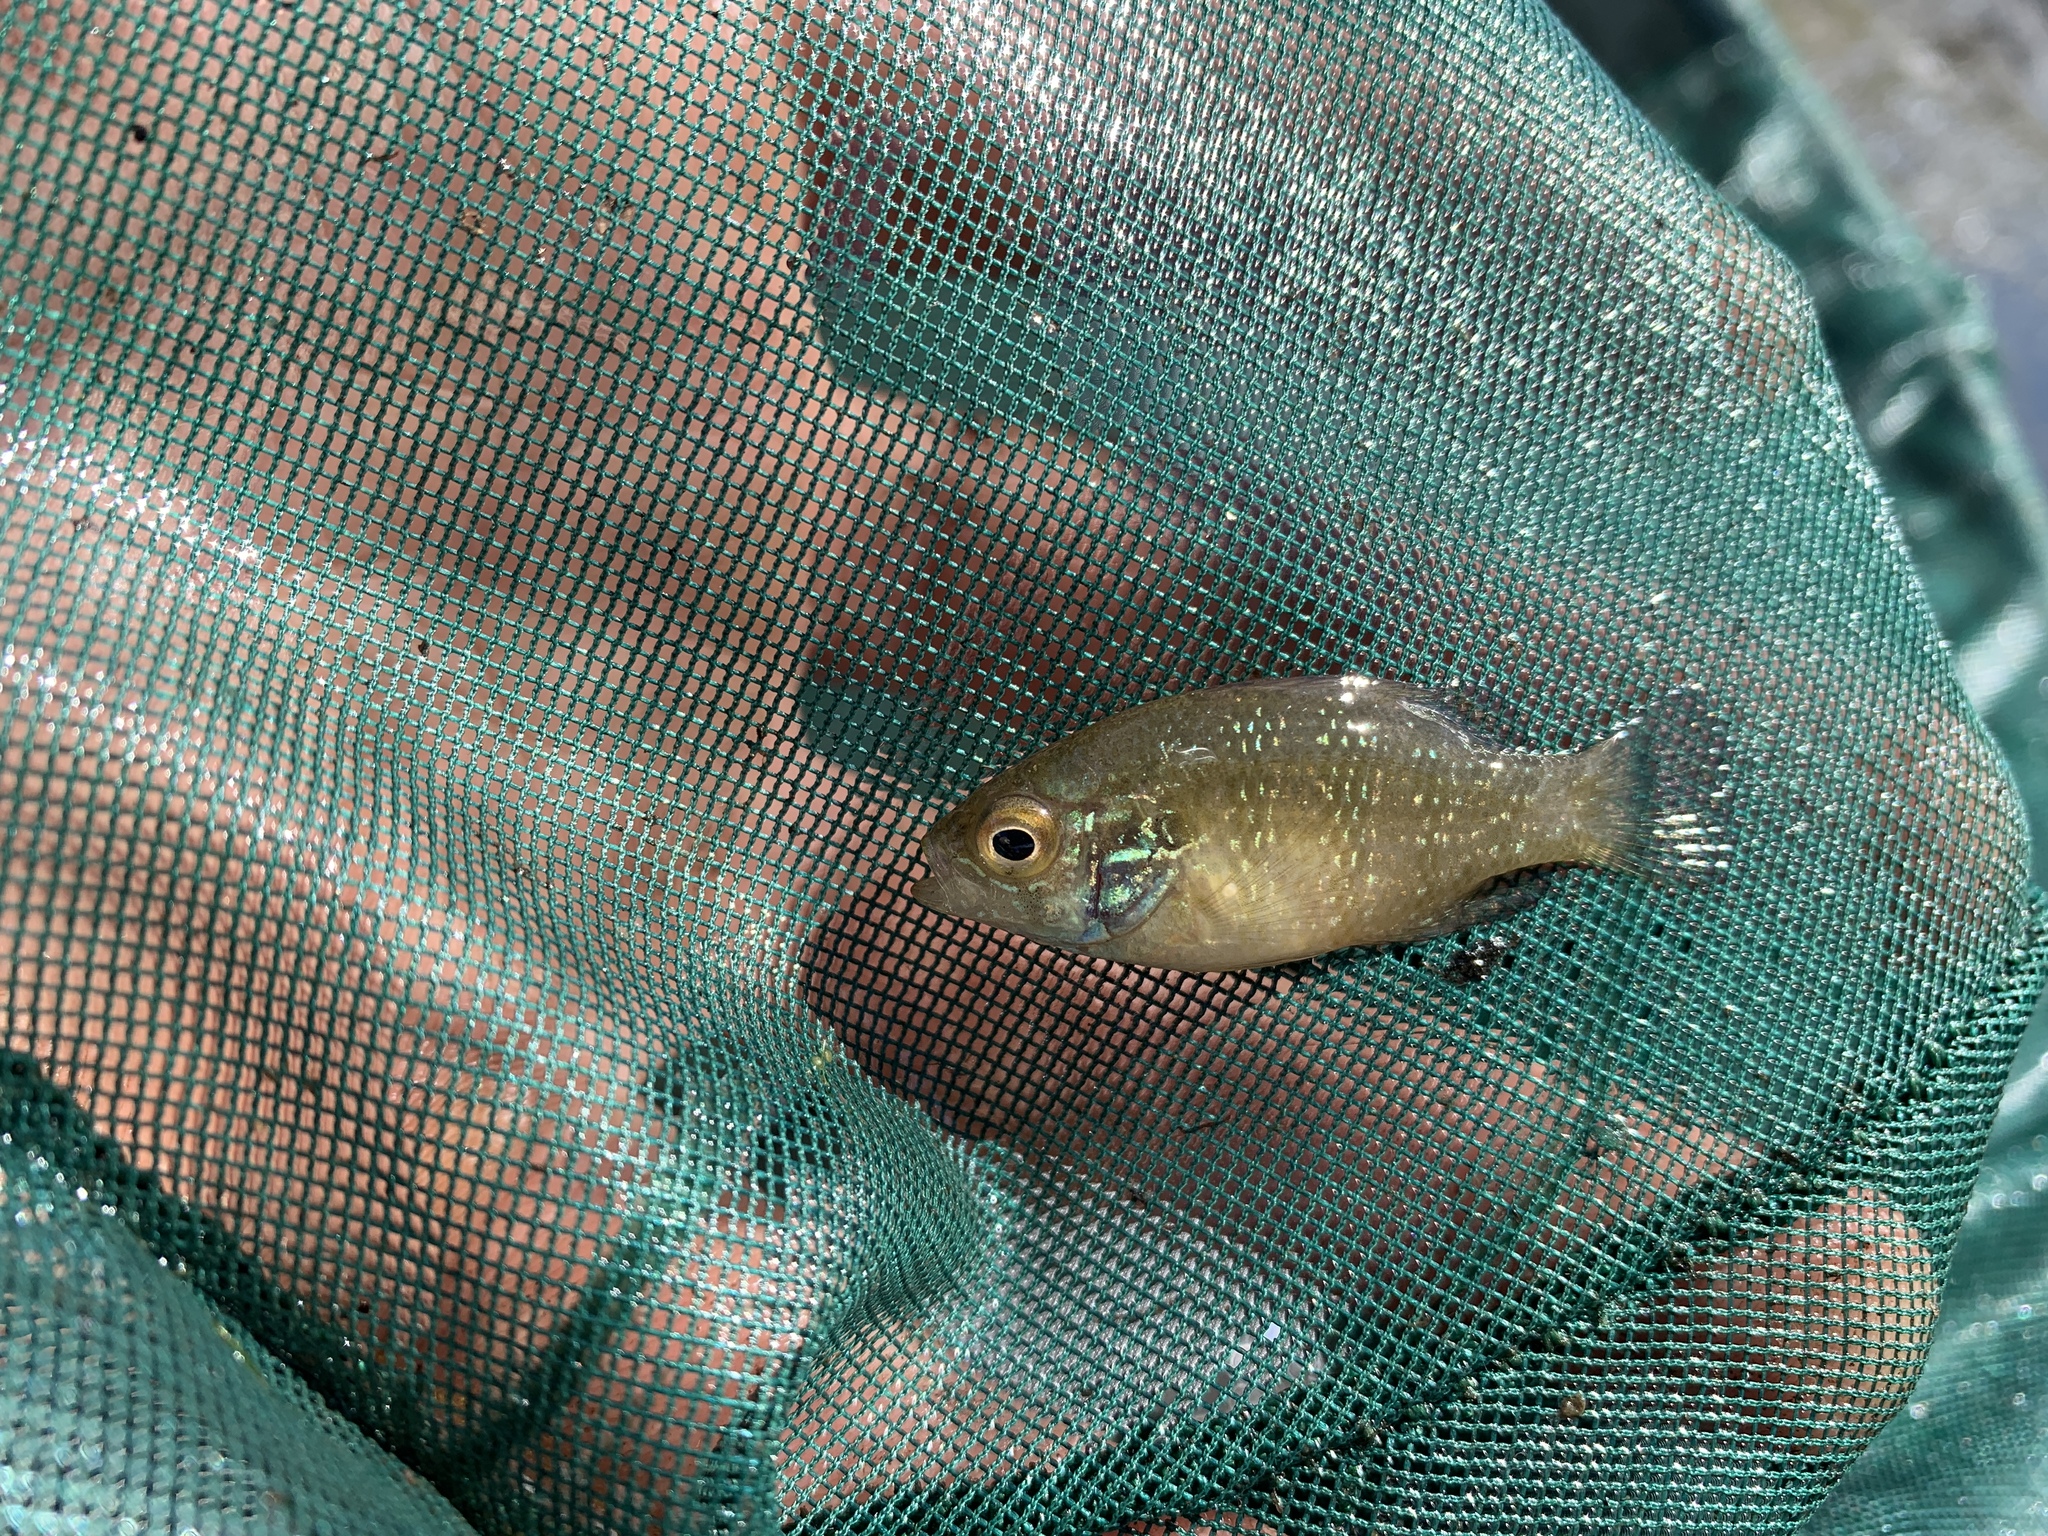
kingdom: Animalia
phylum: Chordata
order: Perciformes
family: Centrarchidae
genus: Enneacanthus
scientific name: Enneacanthus obesus
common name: Banded sunfish
